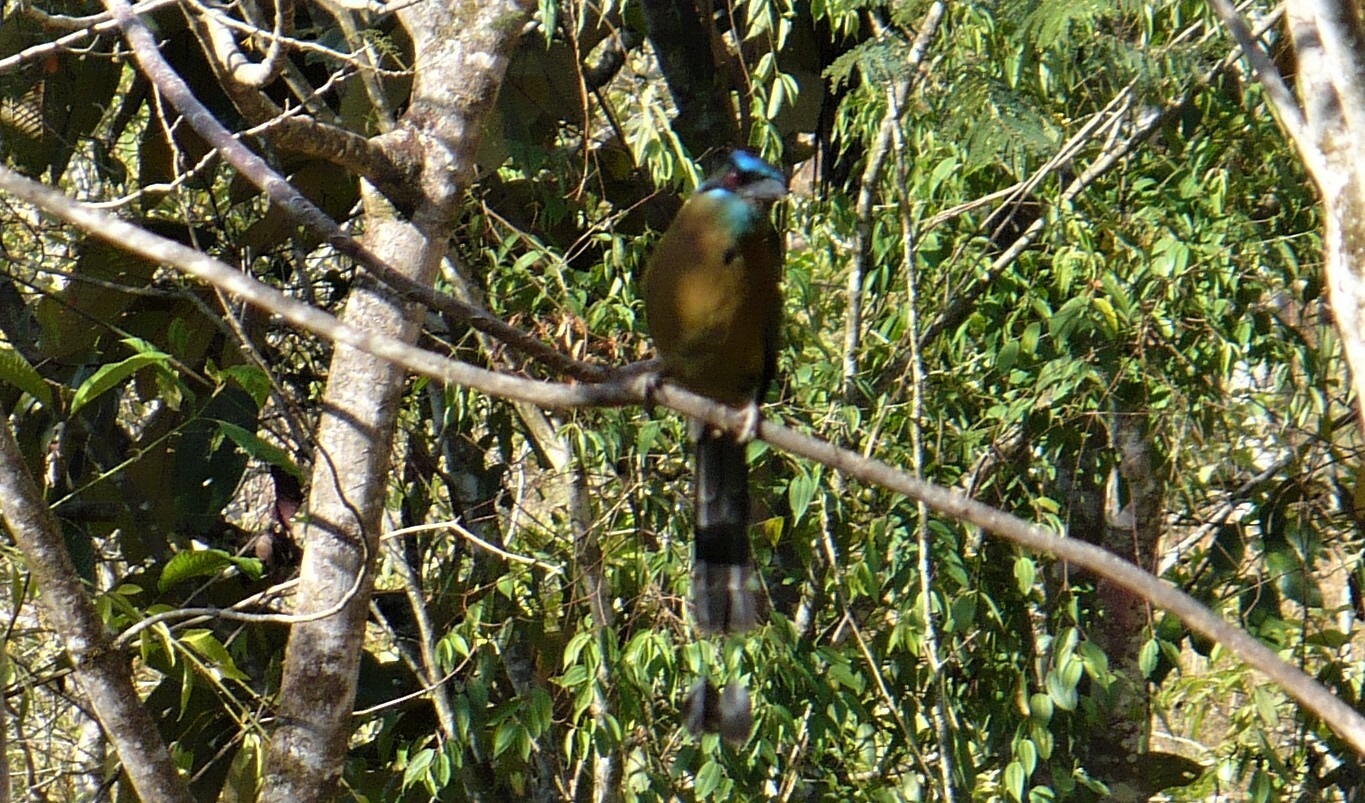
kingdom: Animalia
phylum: Chordata
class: Aves
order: Coraciiformes
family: Momotidae
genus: Momotus
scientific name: Momotus lessonii
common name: Lesson's motmot
